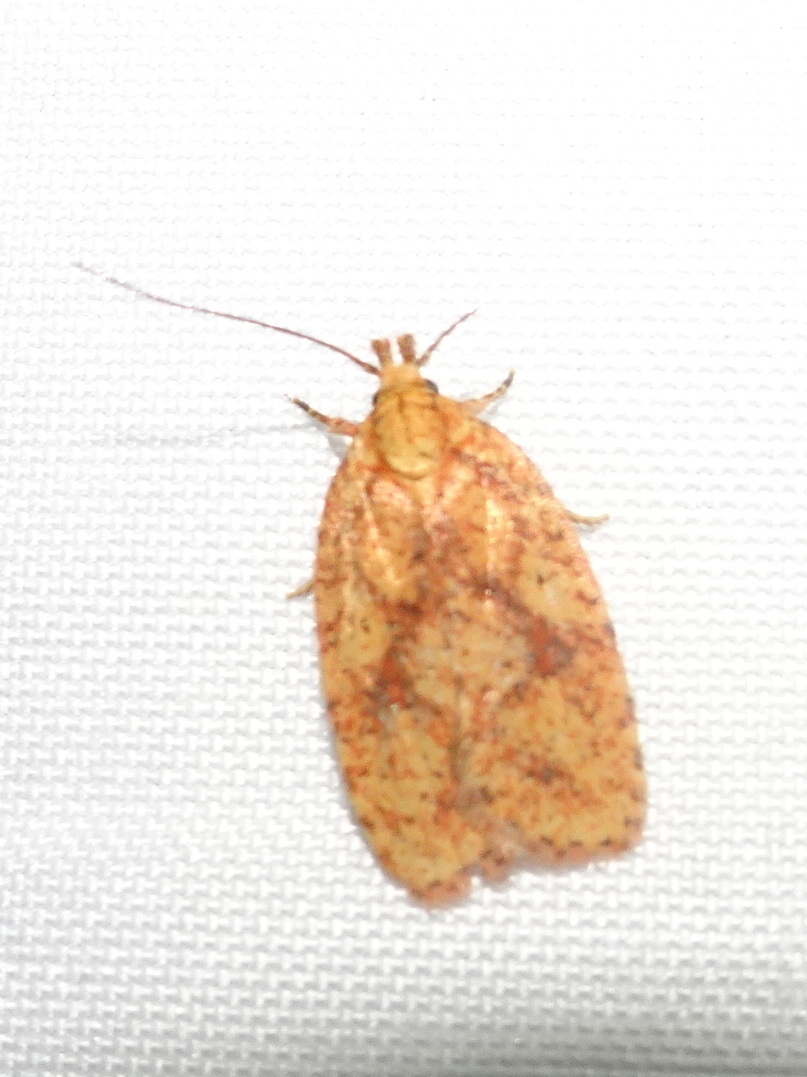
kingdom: Animalia
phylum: Arthropoda
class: Insecta
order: Lepidoptera
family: Depressariidae
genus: Agonopterix
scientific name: Agonopterix robiniella
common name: Four-dotted agonopterix moth
